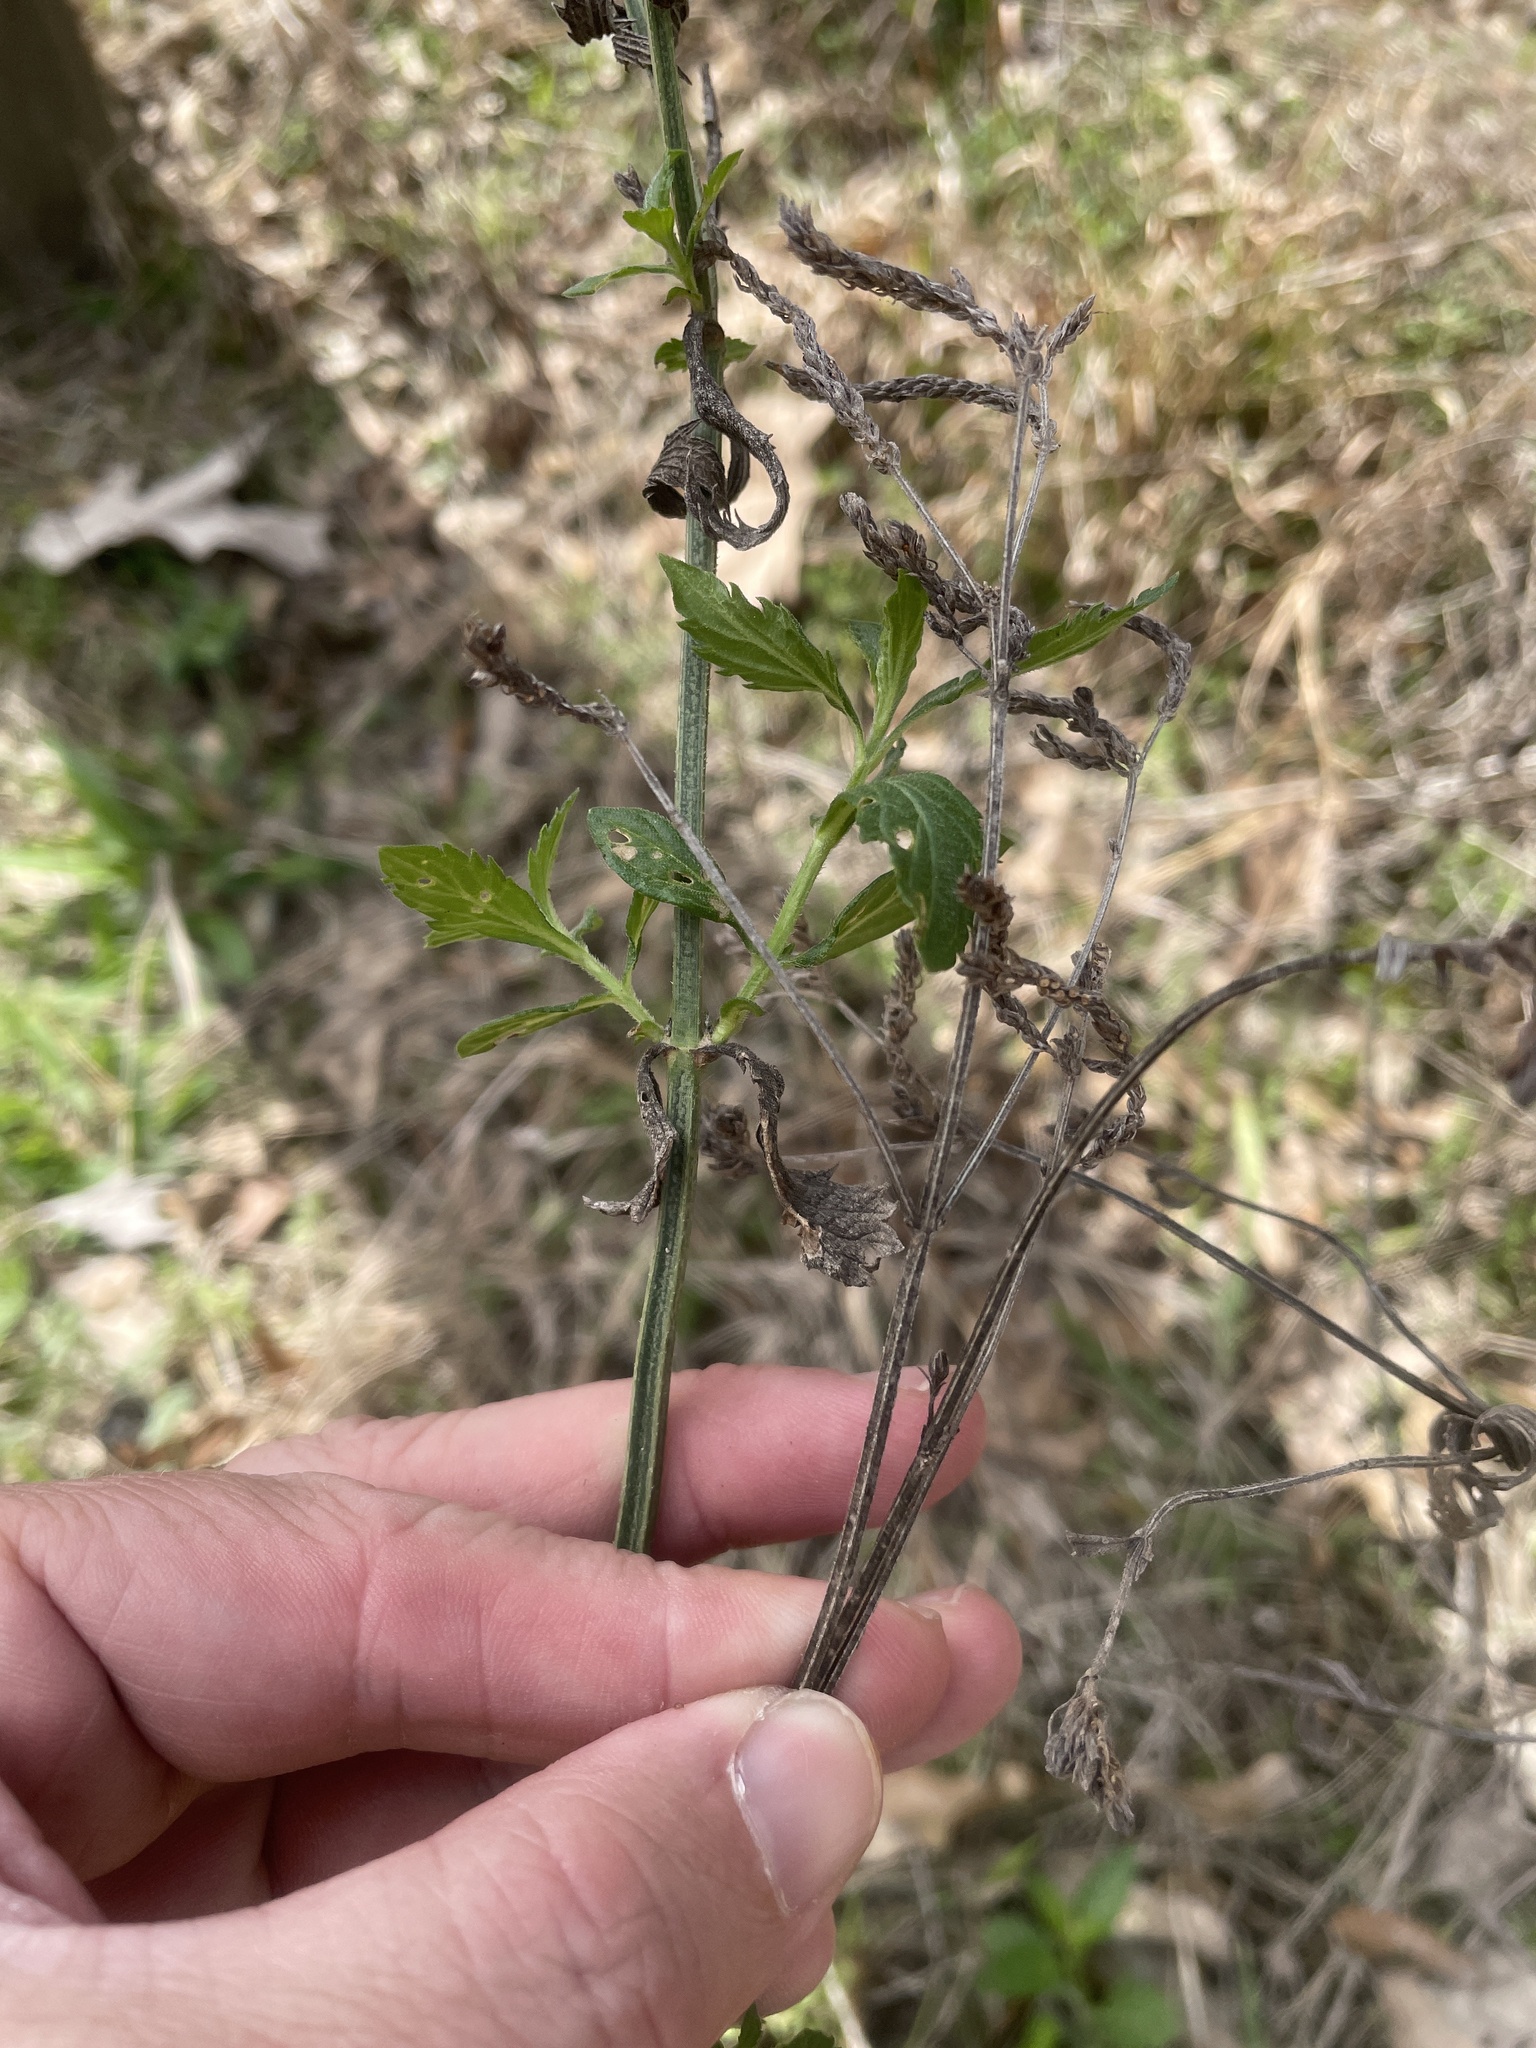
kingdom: Plantae
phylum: Tracheophyta
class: Magnoliopsida
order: Lamiales
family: Verbenaceae
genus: Verbena
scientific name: Verbena brasiliensis
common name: Brazilian vervain
